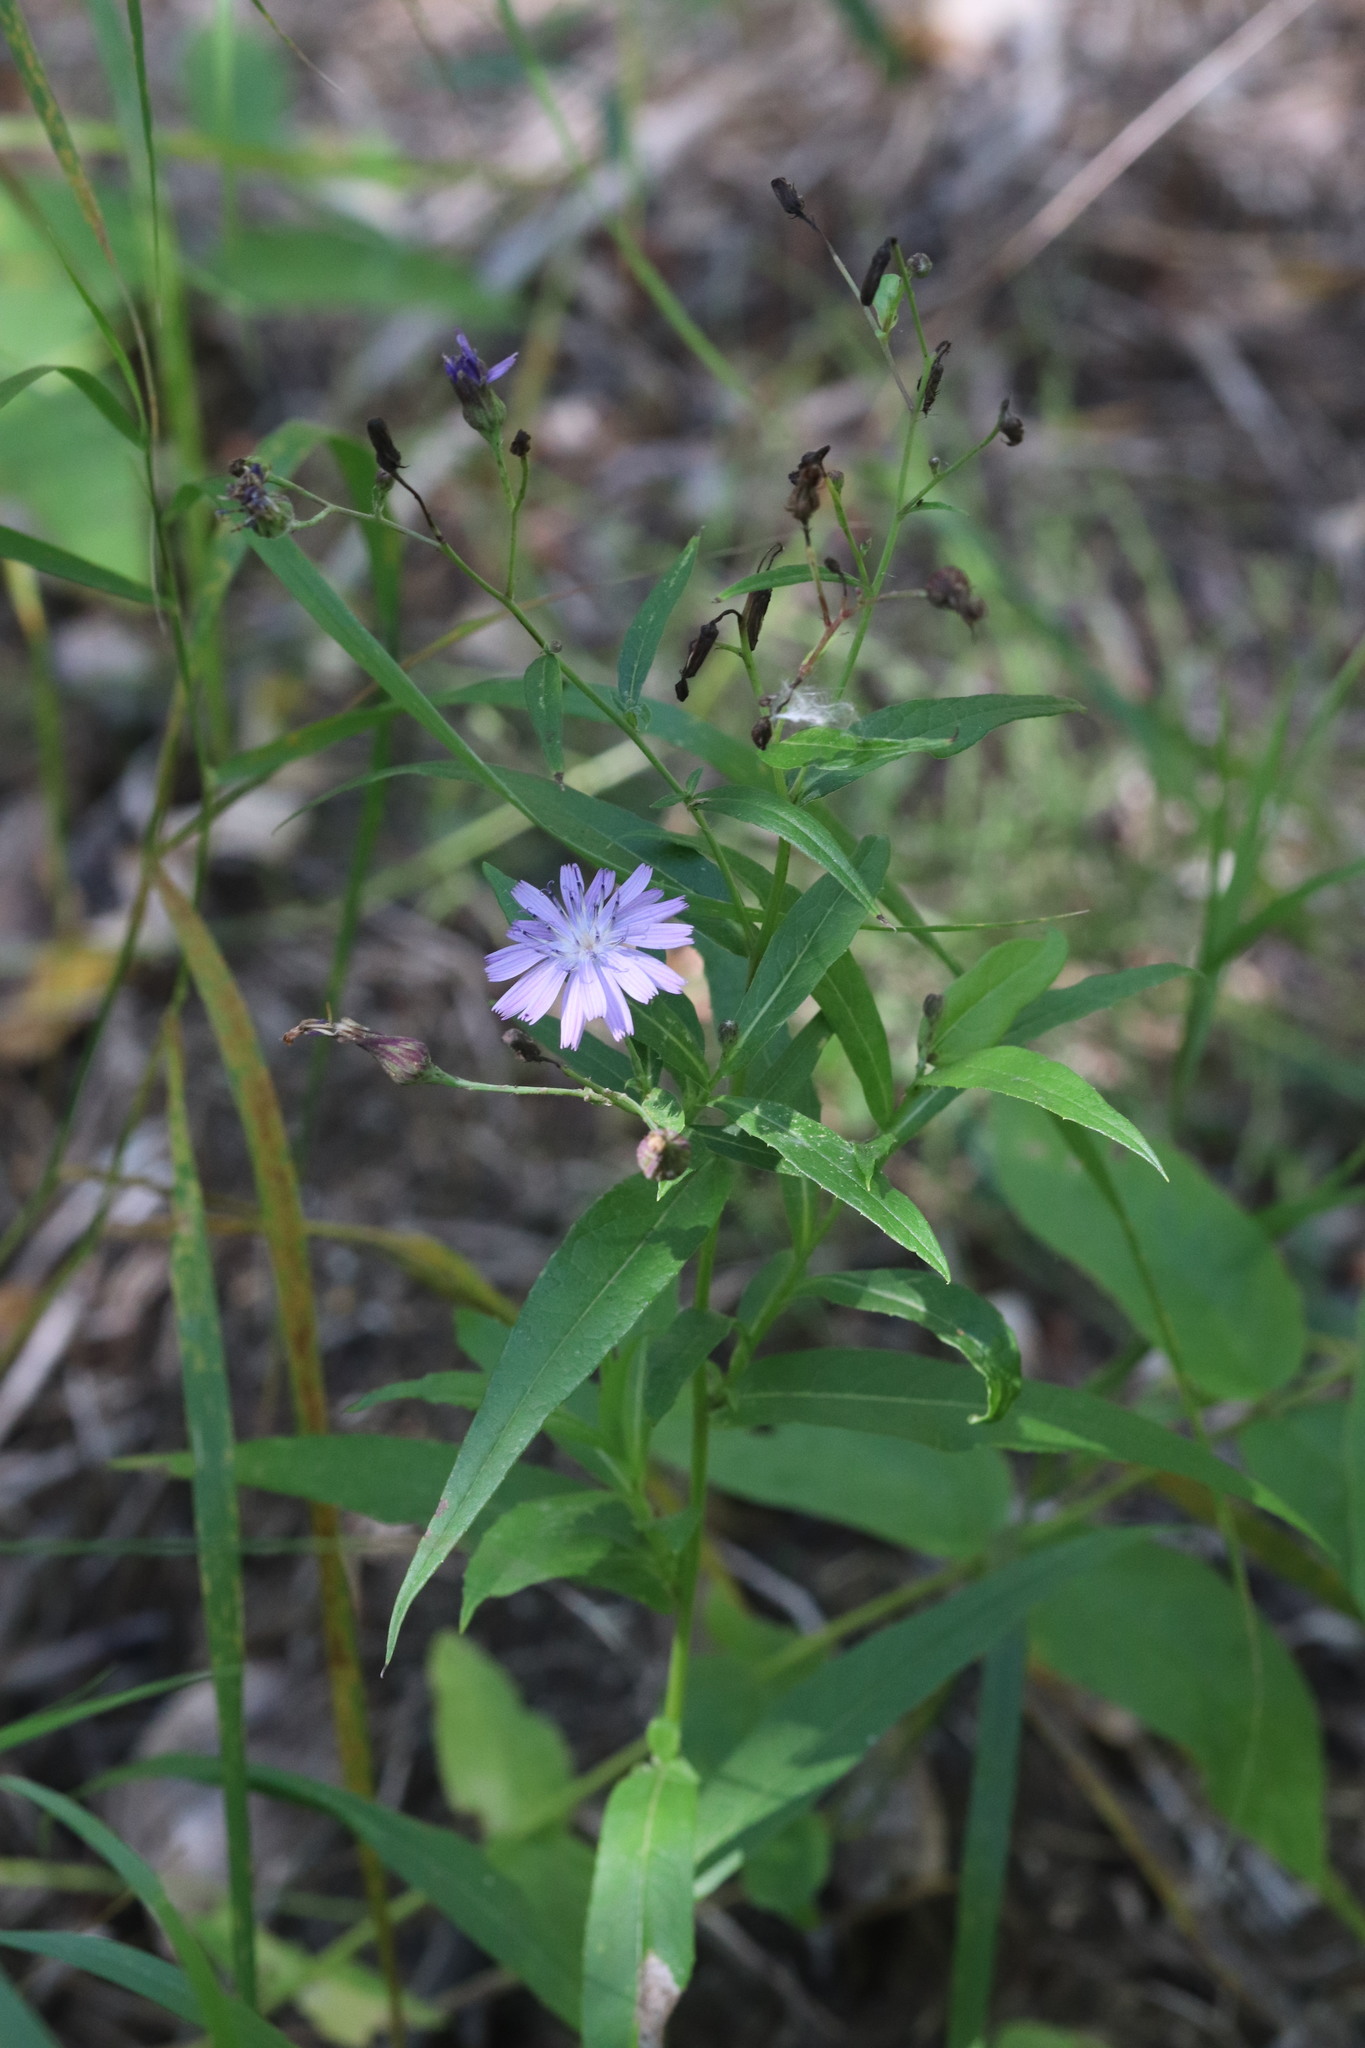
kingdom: Plantae
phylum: Tracheophyta
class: Magnoliopsida
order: Asterales
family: Asteraceae
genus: Lactuca
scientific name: Lactuca sibirica
